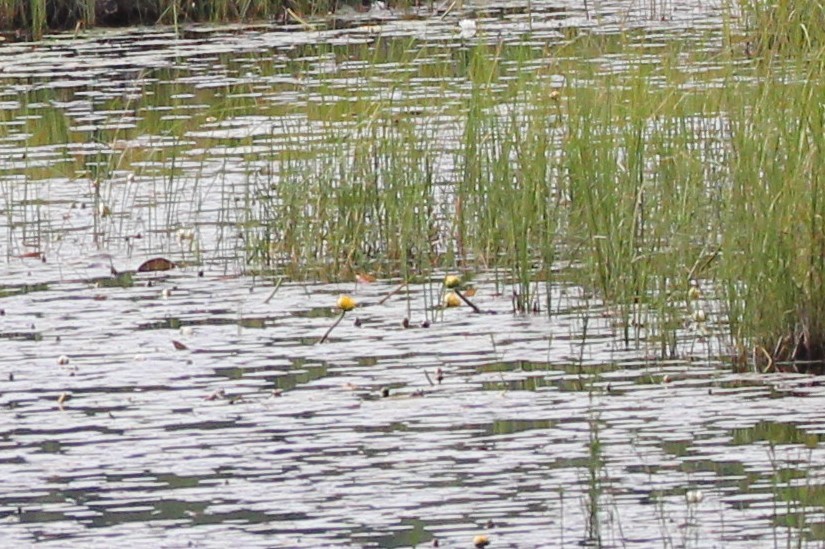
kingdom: Plantae
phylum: Tracheophyta
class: Magnoliopsida
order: Nymphaeales
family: Nymphaeaceae
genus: Nuphar
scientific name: Nuphar variegata
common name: Beaver-root
